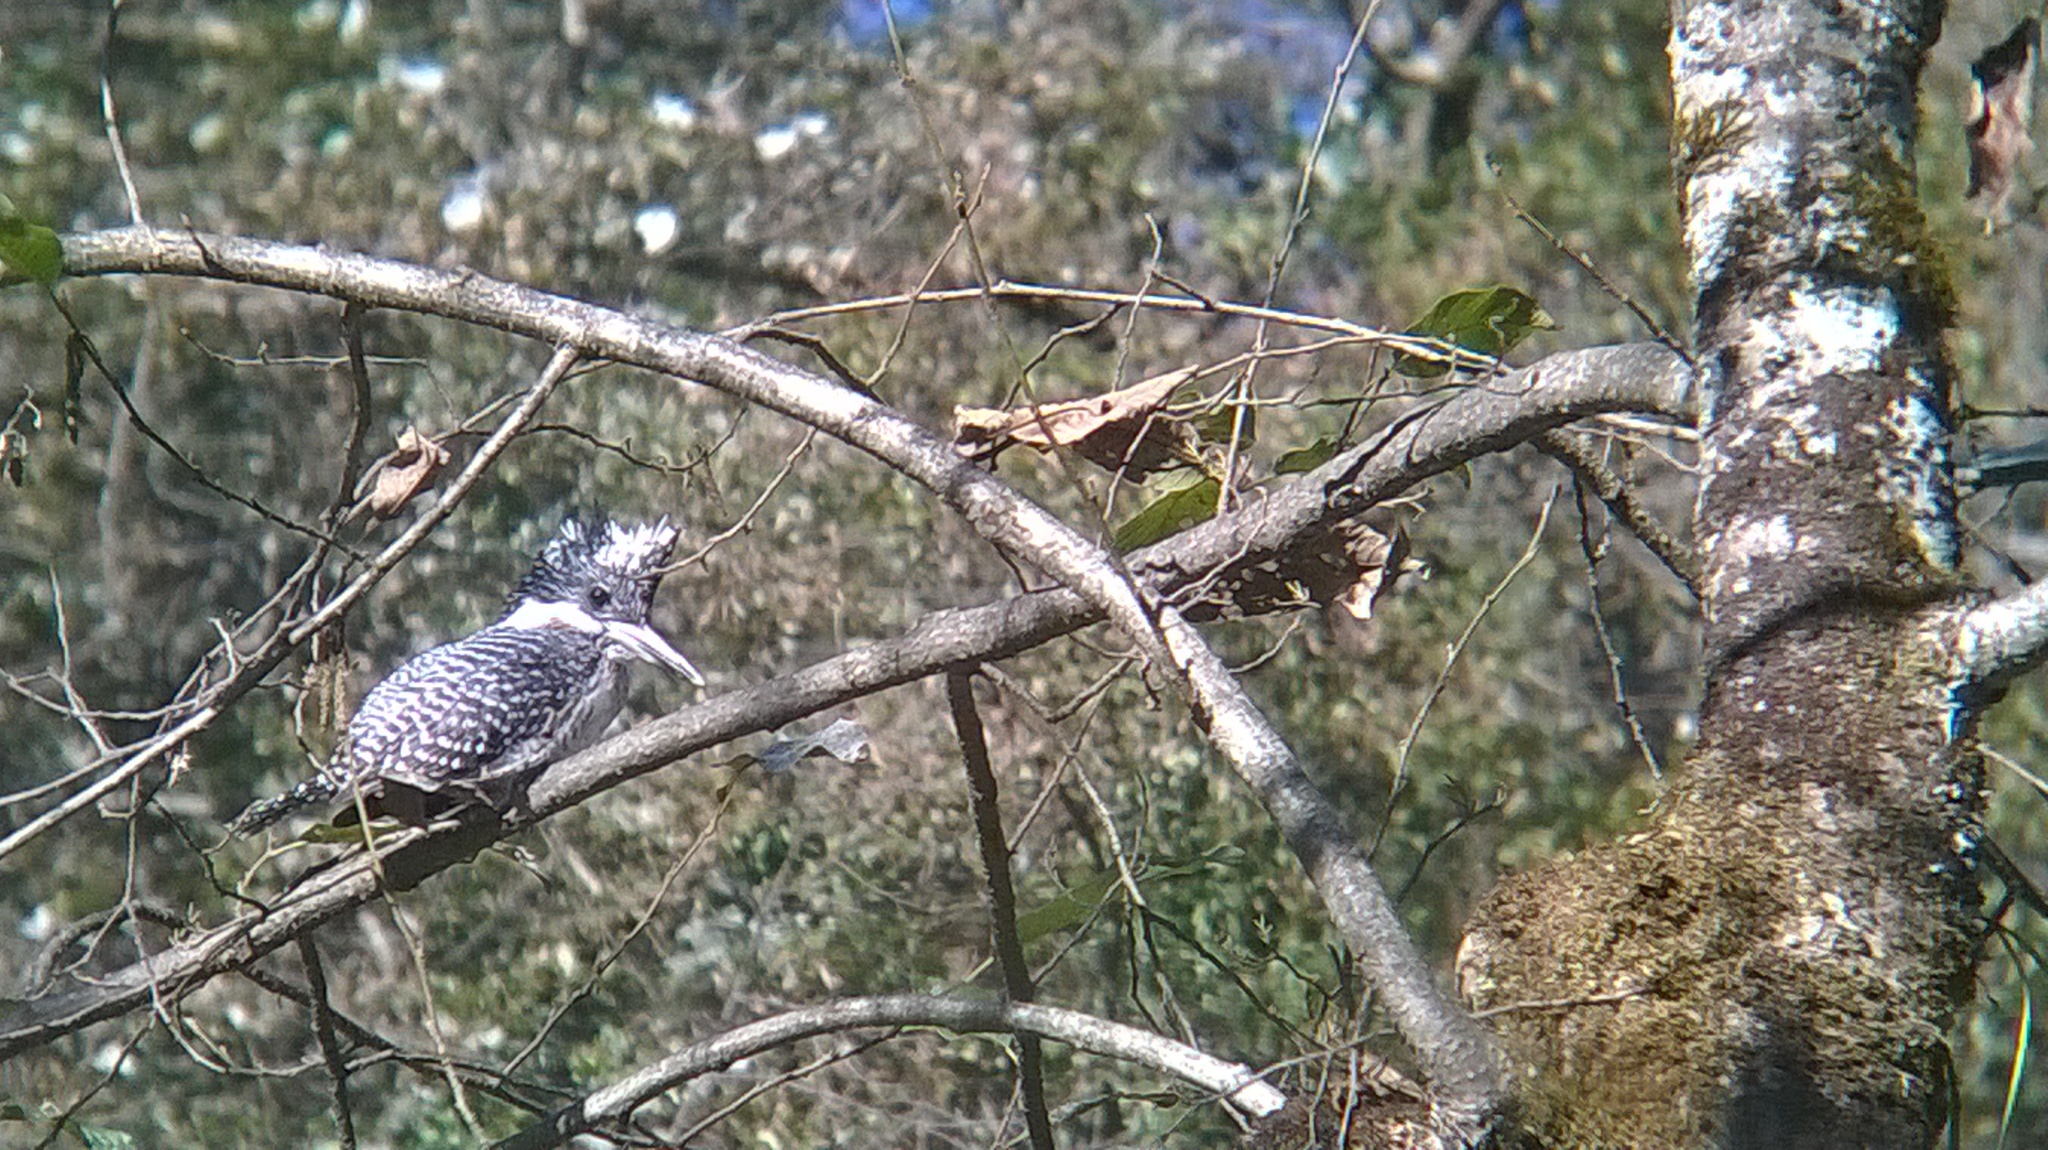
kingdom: Animalia
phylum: Chordata
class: Aves
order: Coraciiformes
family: Alcedinidae
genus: Megaceryle
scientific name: Megaceryle lugubris
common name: Crested kingfisher
